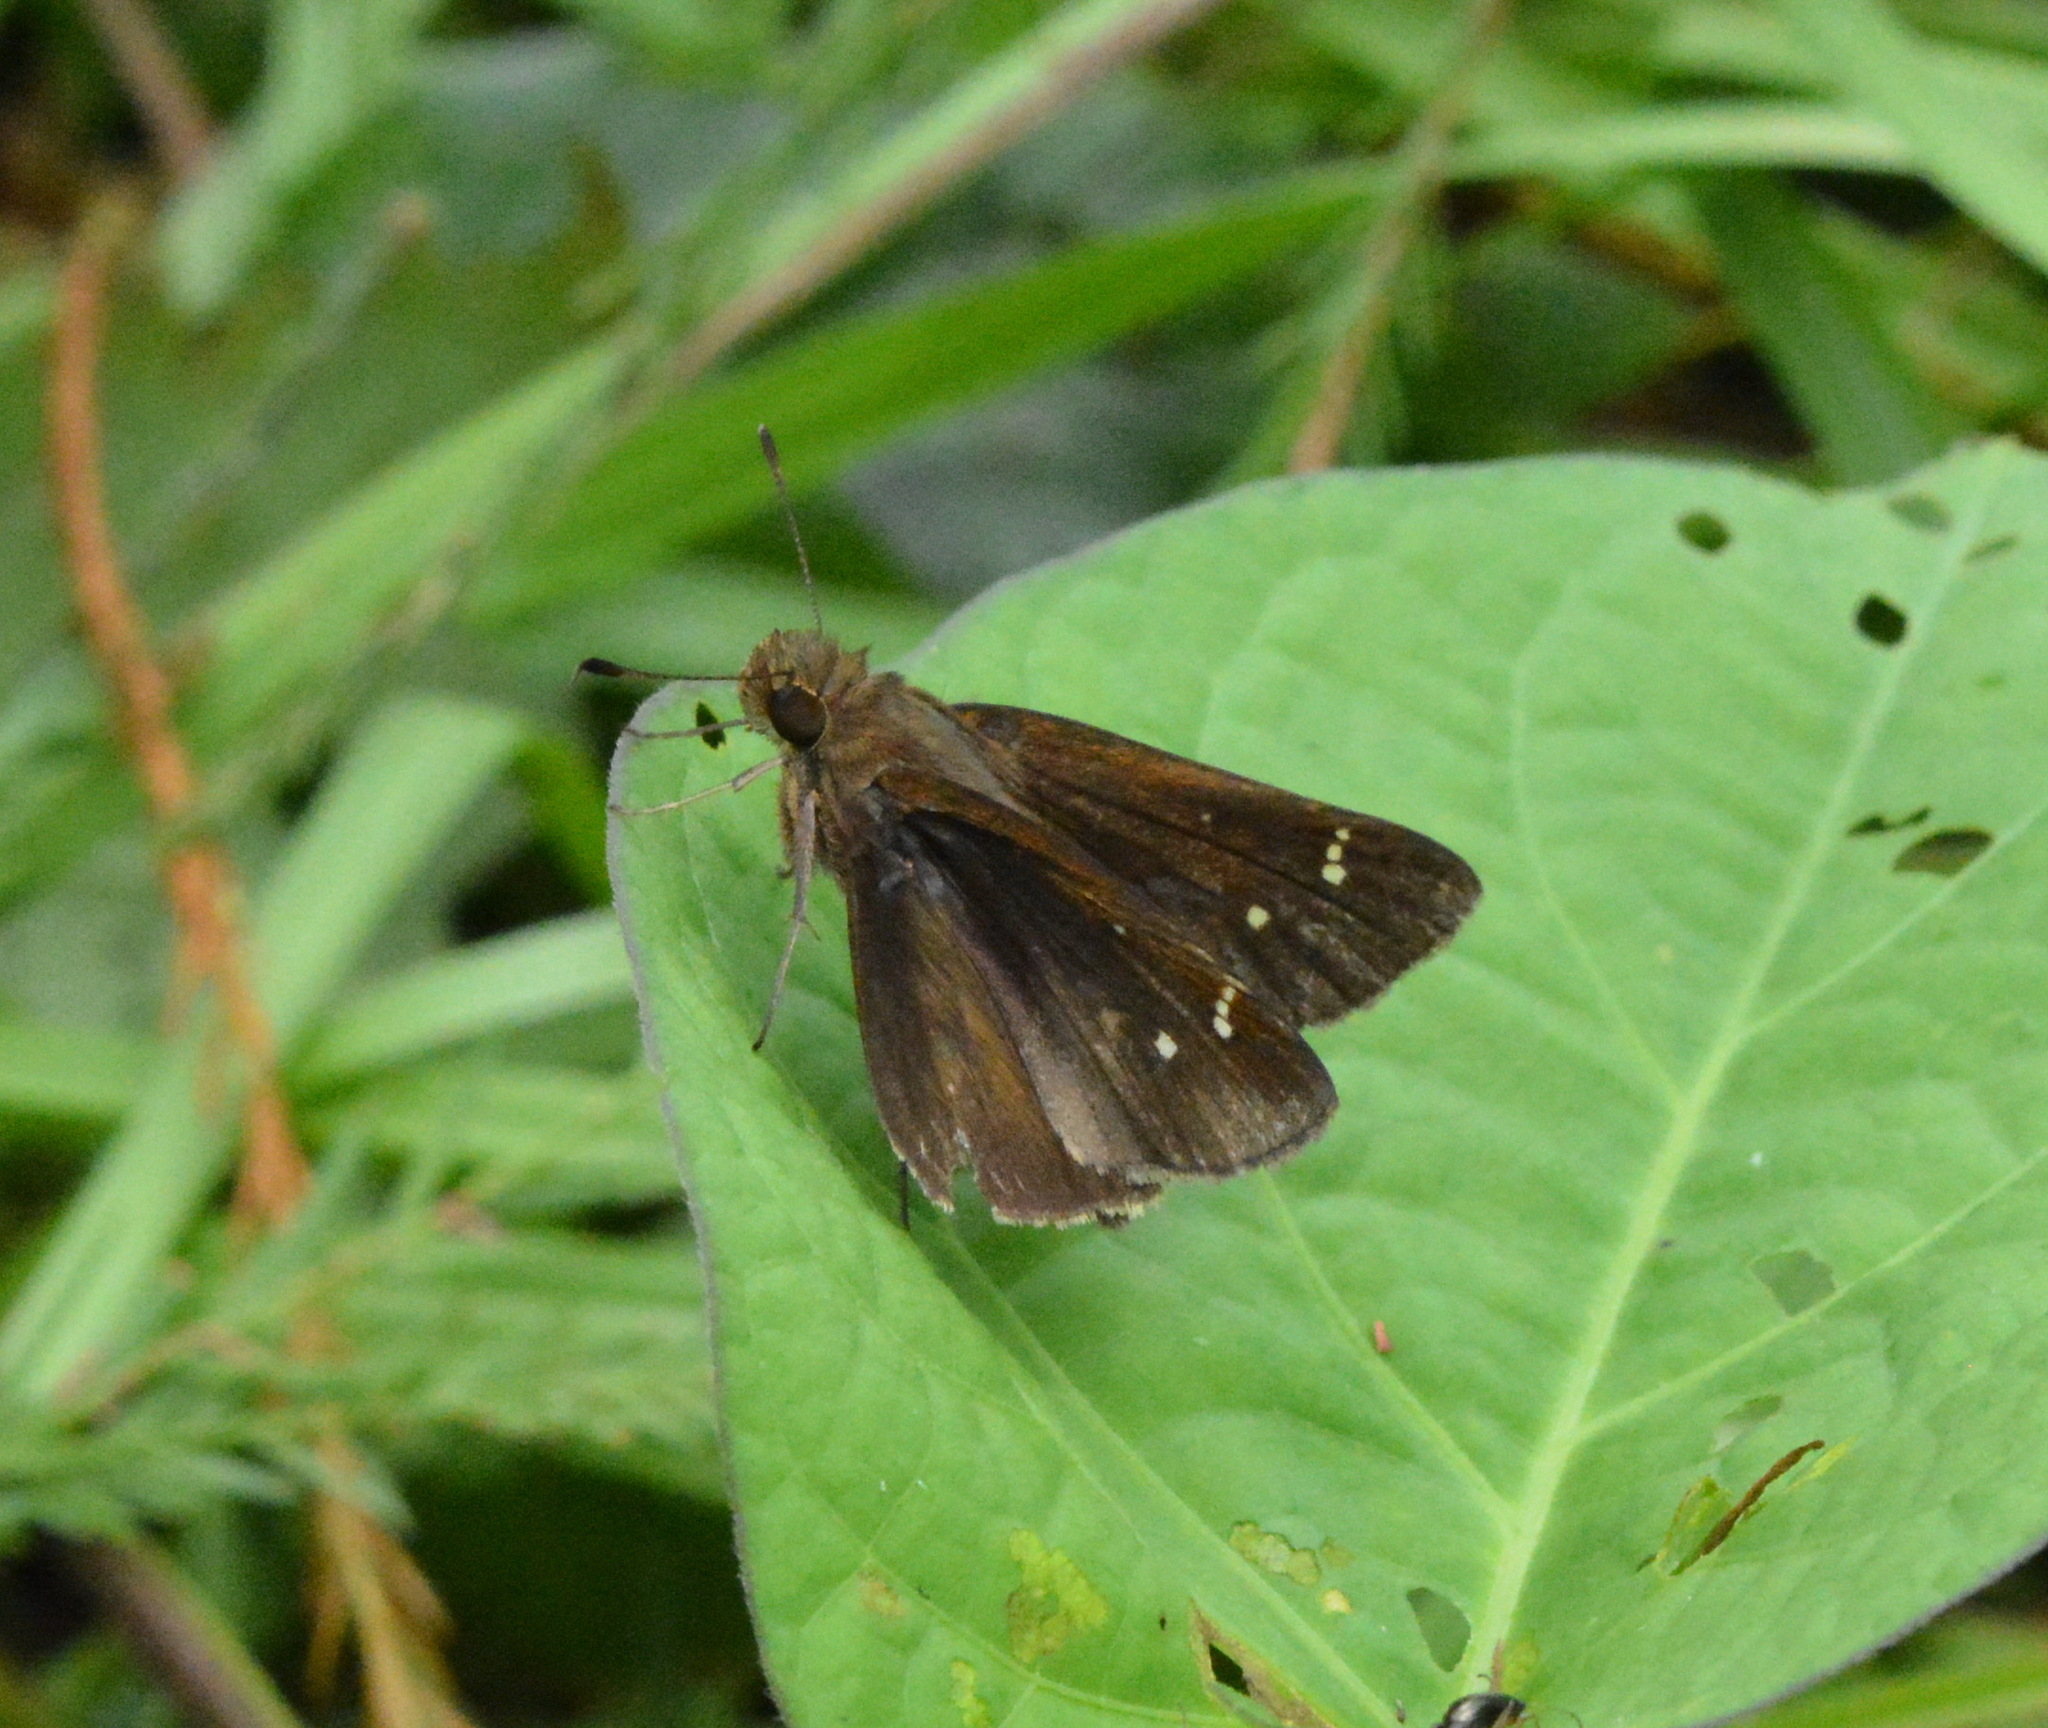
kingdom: Animalia
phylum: Arthropoda
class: Insecta
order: Lepidoptera
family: Hesperiidae
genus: Lerema
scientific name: Lerema accius
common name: Clouded skipper
